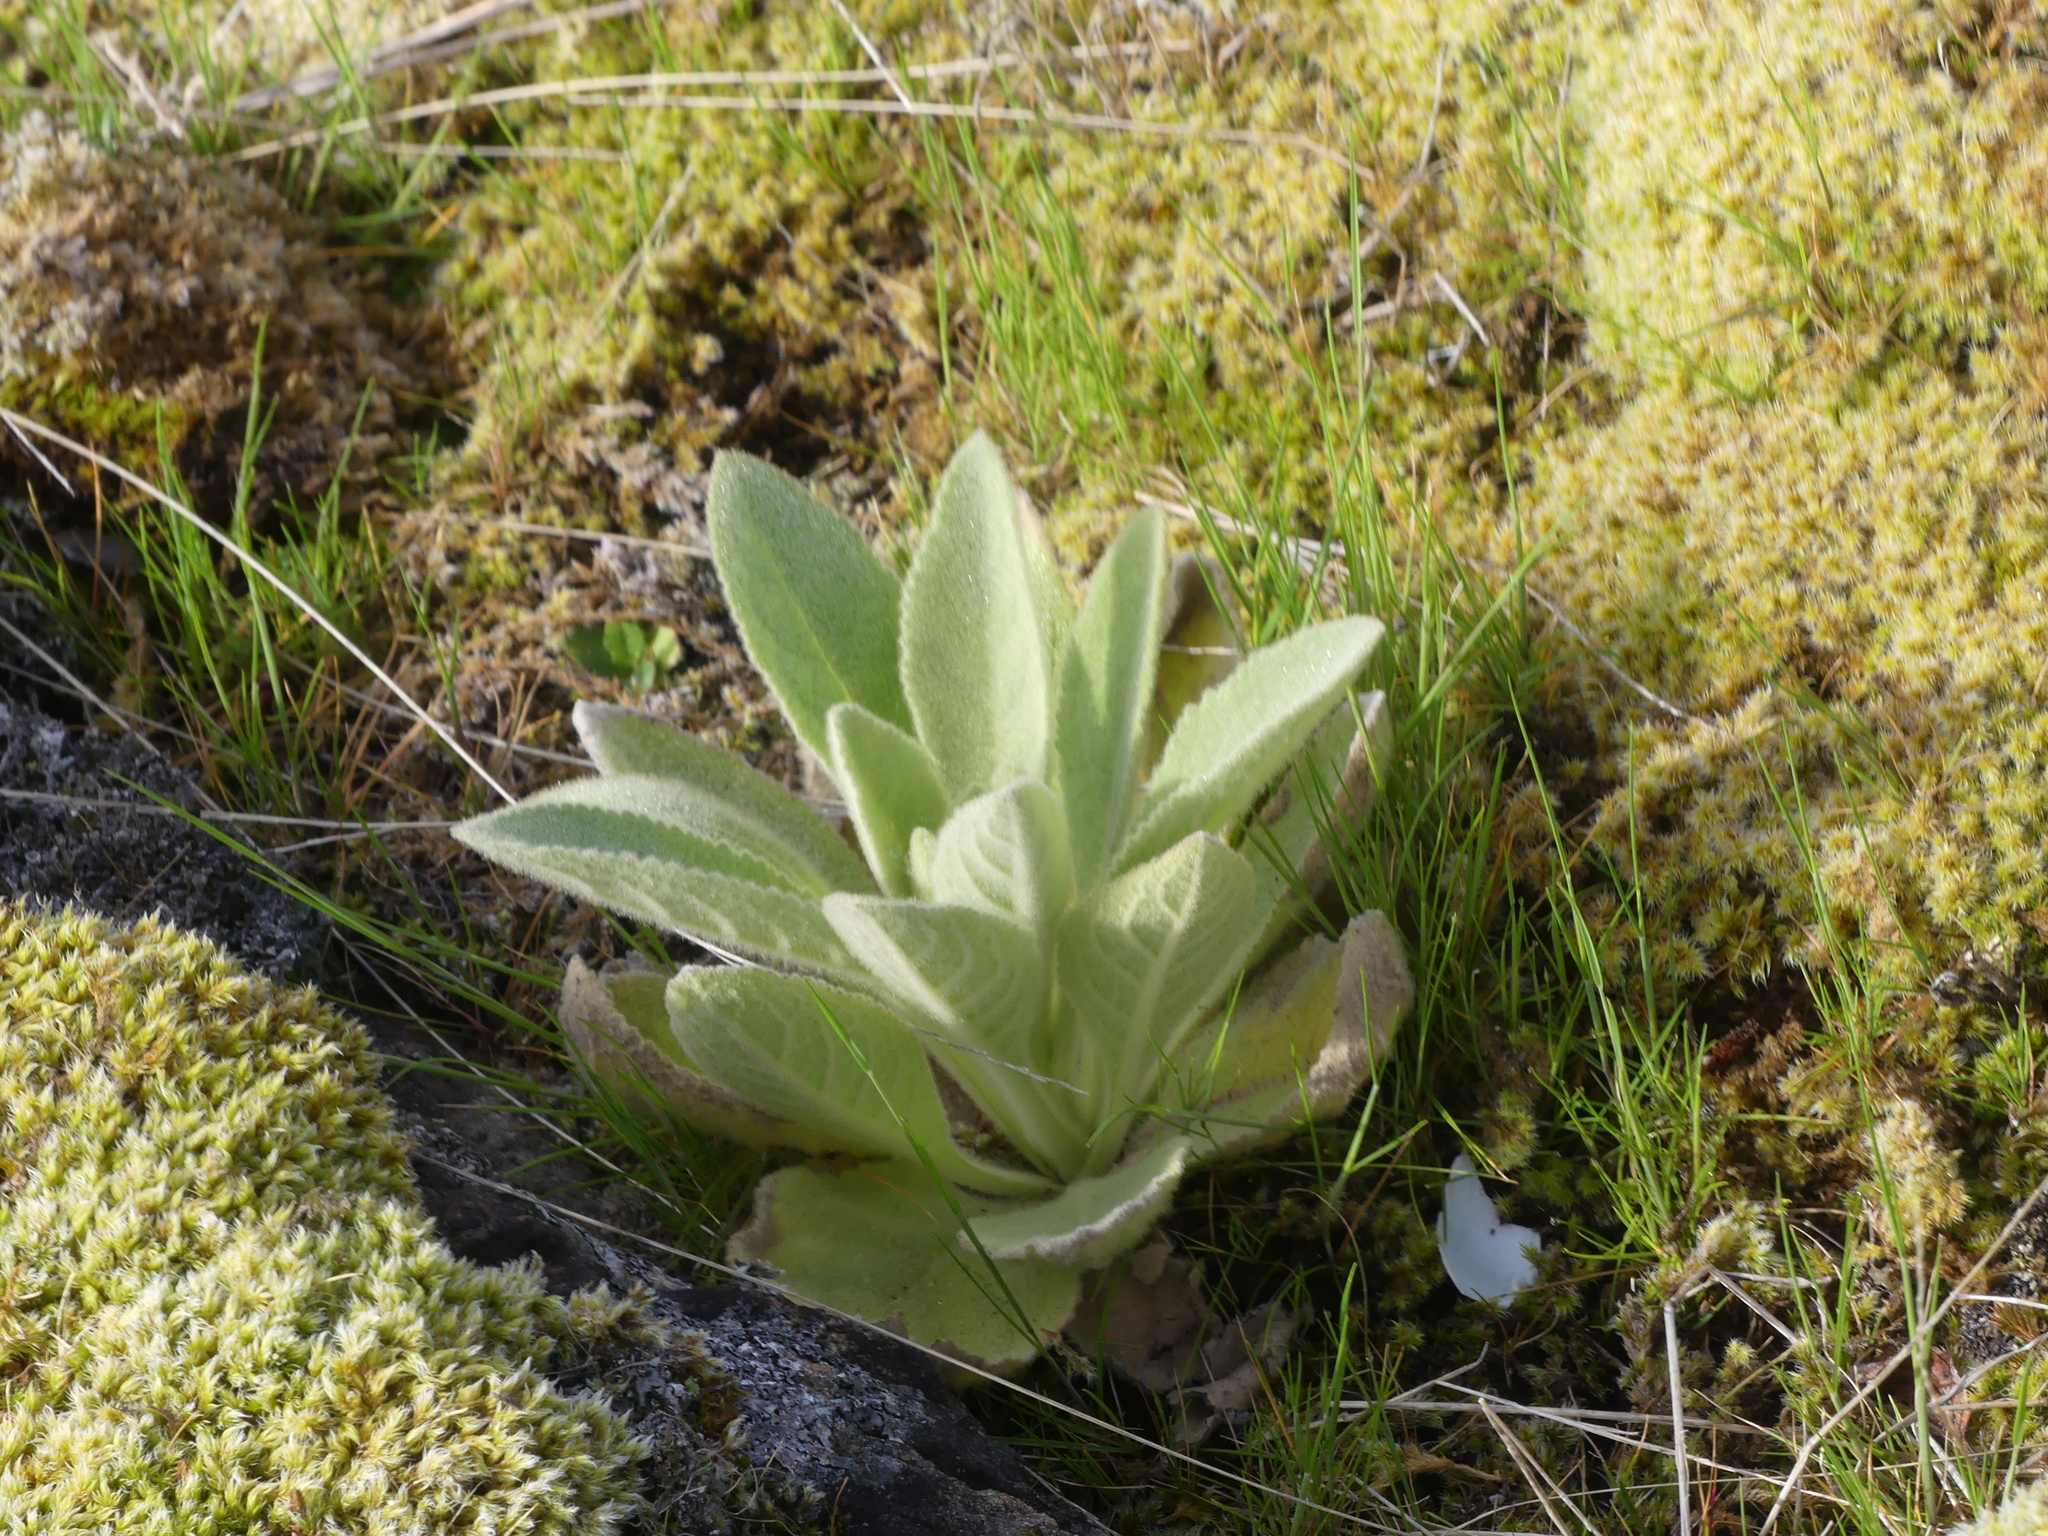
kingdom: Plantae
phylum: Tracheophyta
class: Magnoliopsida
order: Lamiales
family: Scrophulariaceae
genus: Verbascum
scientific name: Verbascum thapsus
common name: Common mullein
